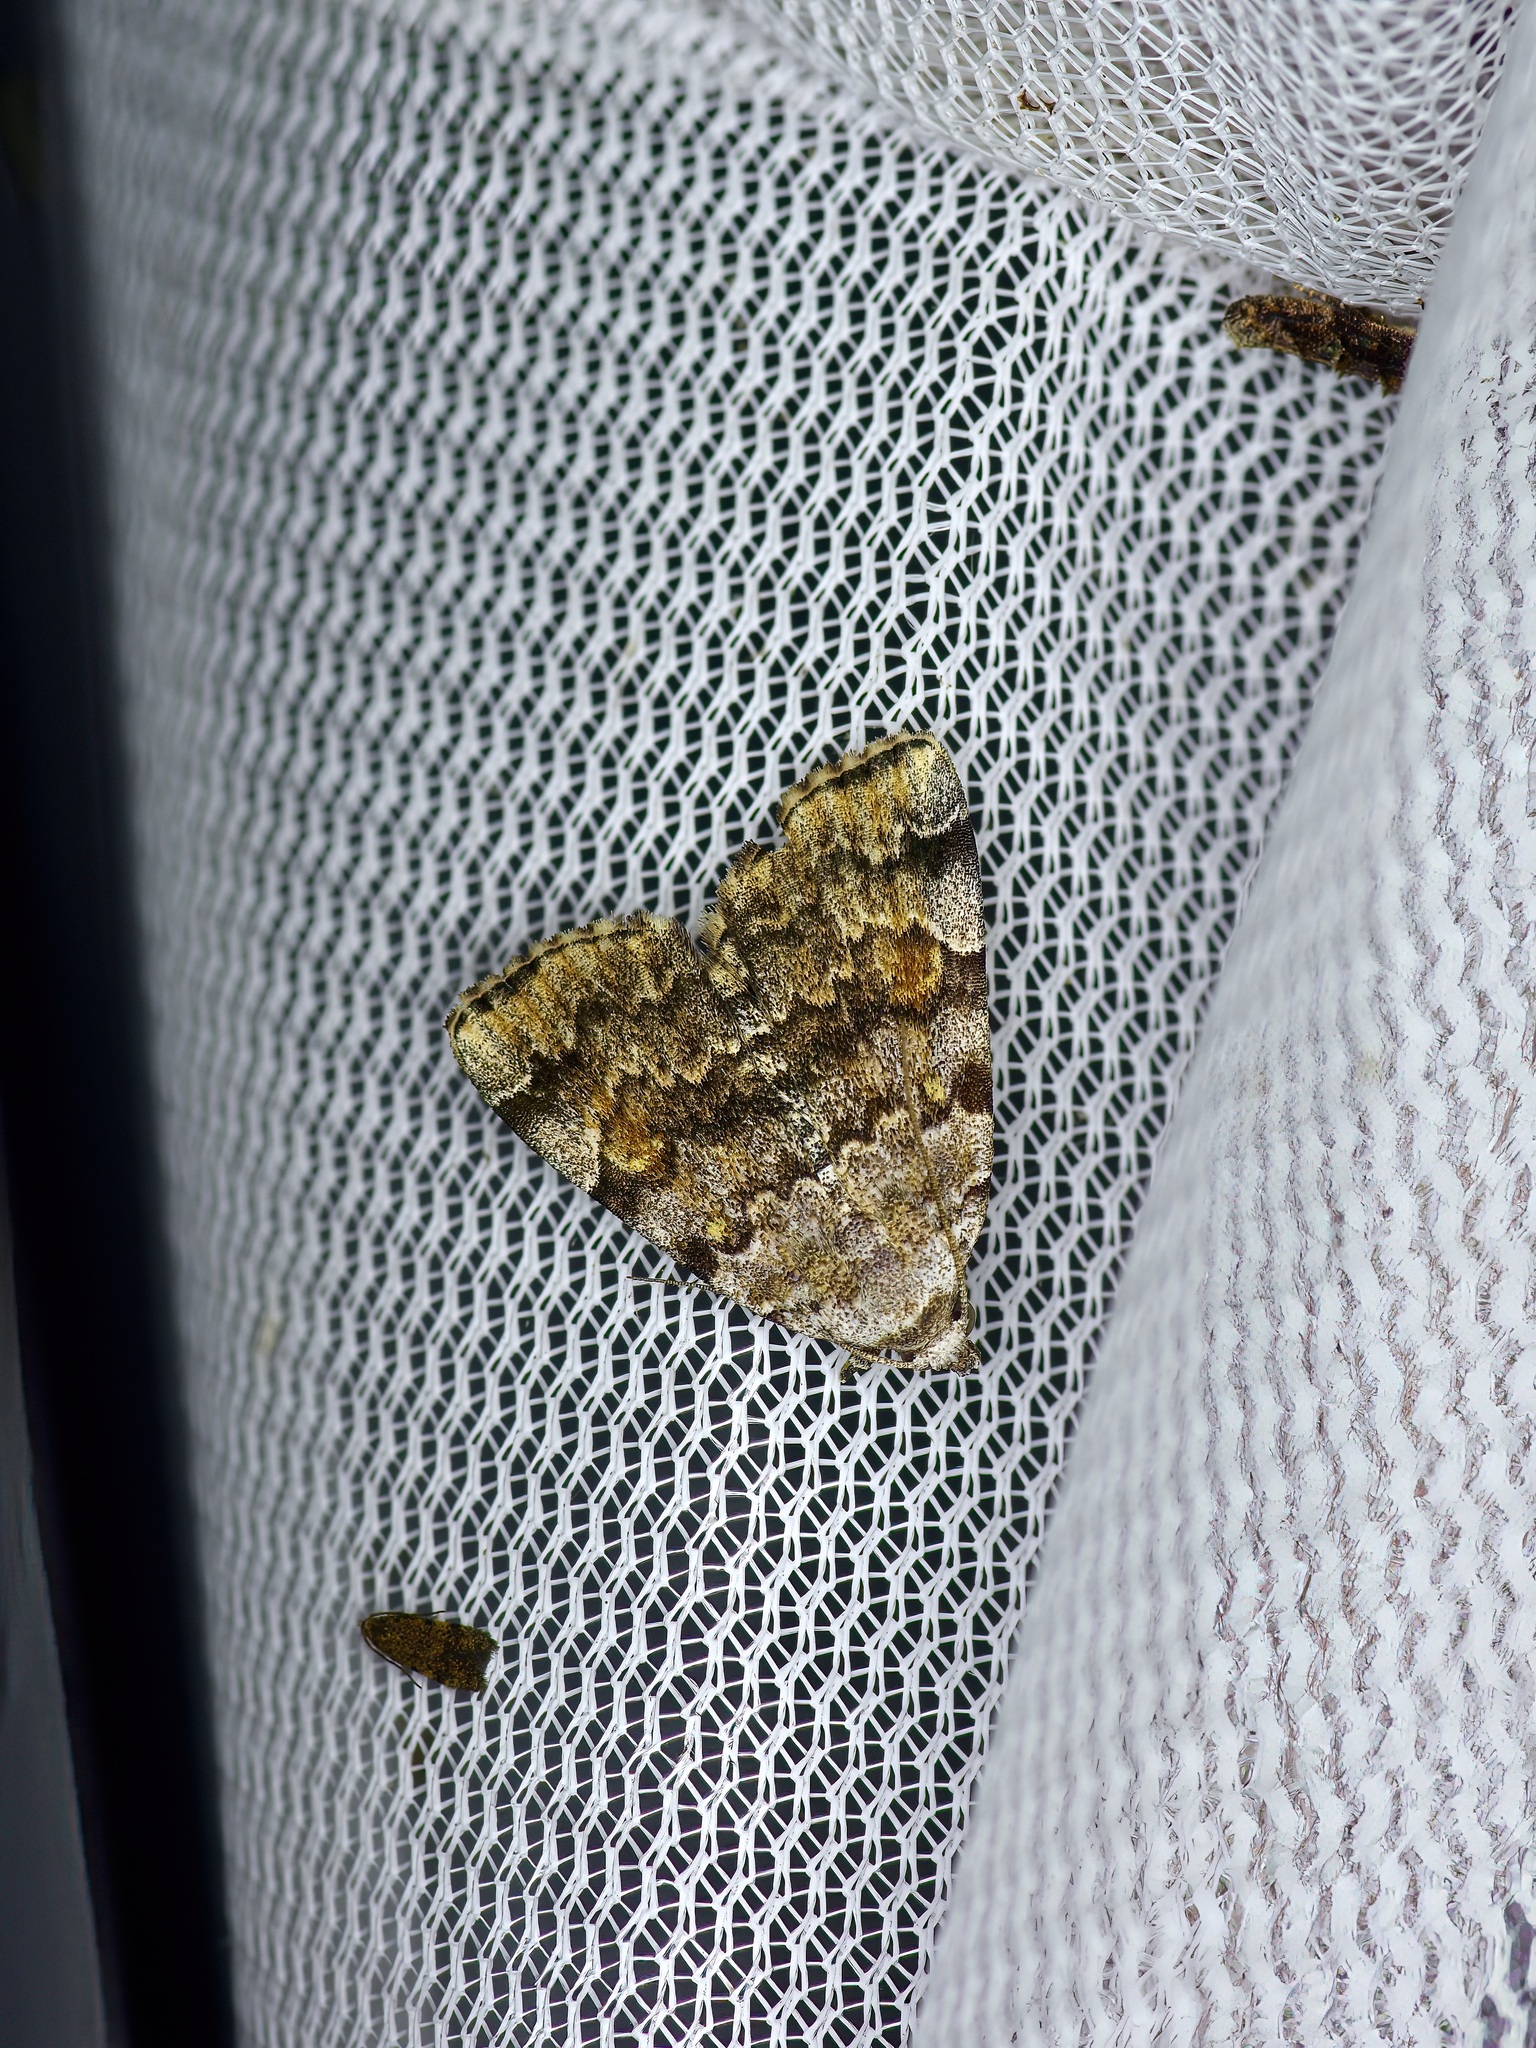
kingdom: Animalia
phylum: Arthropoda
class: Insecta
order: Lepidoptera
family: Erebidae
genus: Idia
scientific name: Idia americalis
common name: American idia moth
